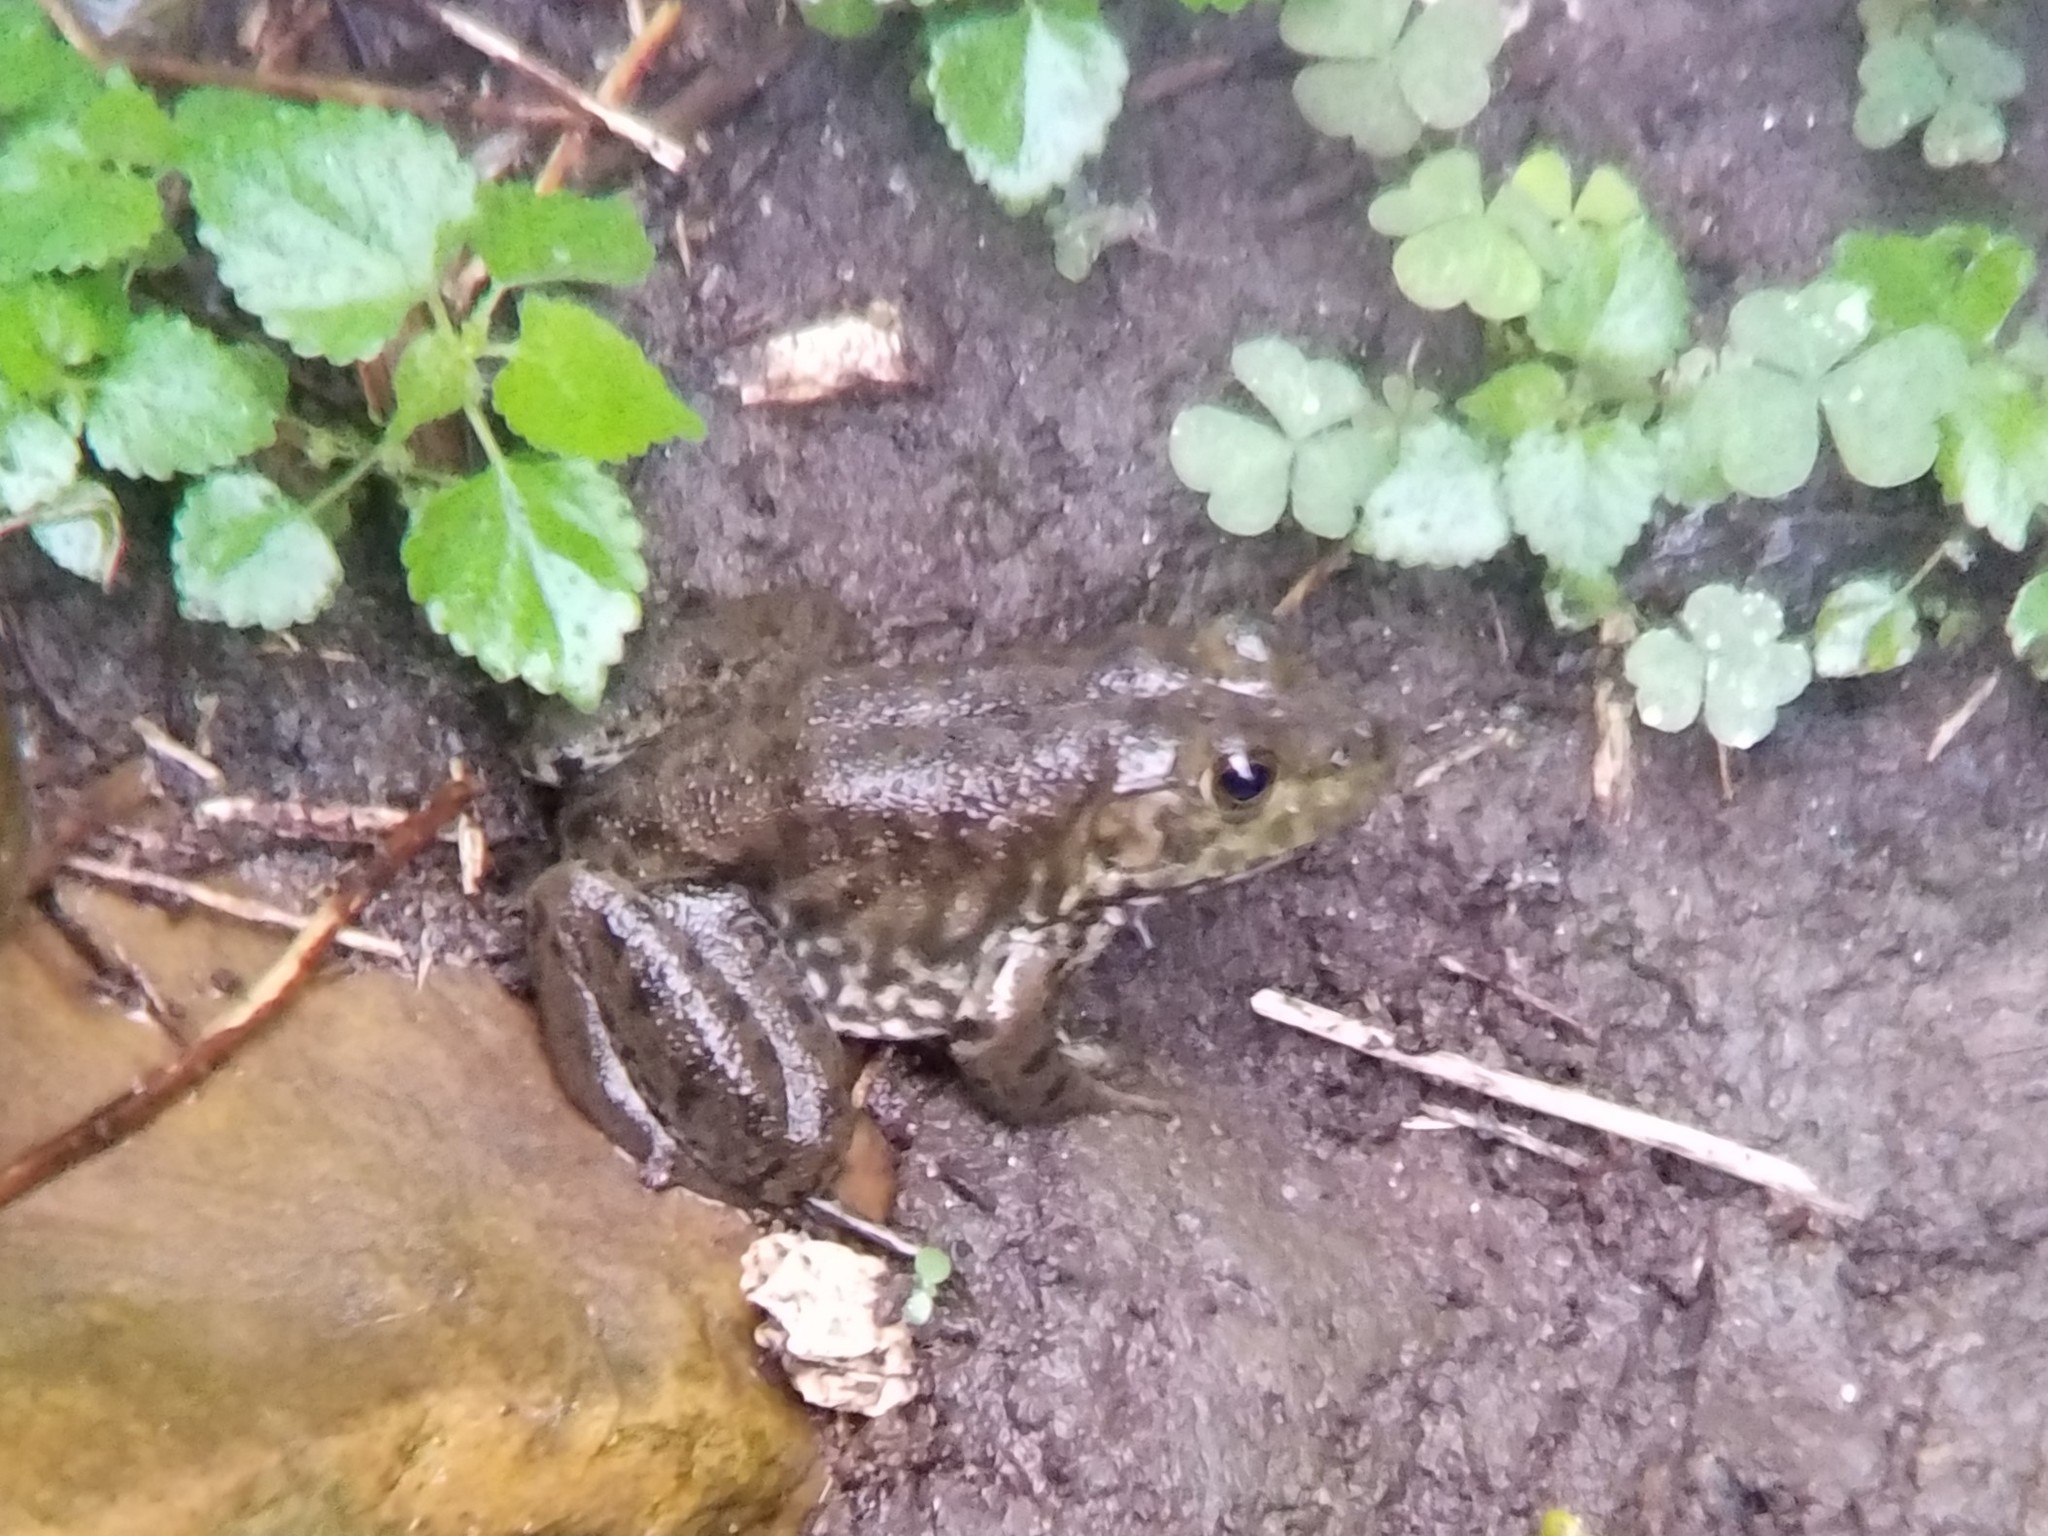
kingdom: Animalia
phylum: Chordata
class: Amphibia
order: Anura
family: Ranidae
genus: Lithobates
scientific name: Lithobates catesbeianus
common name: American bullfrog
